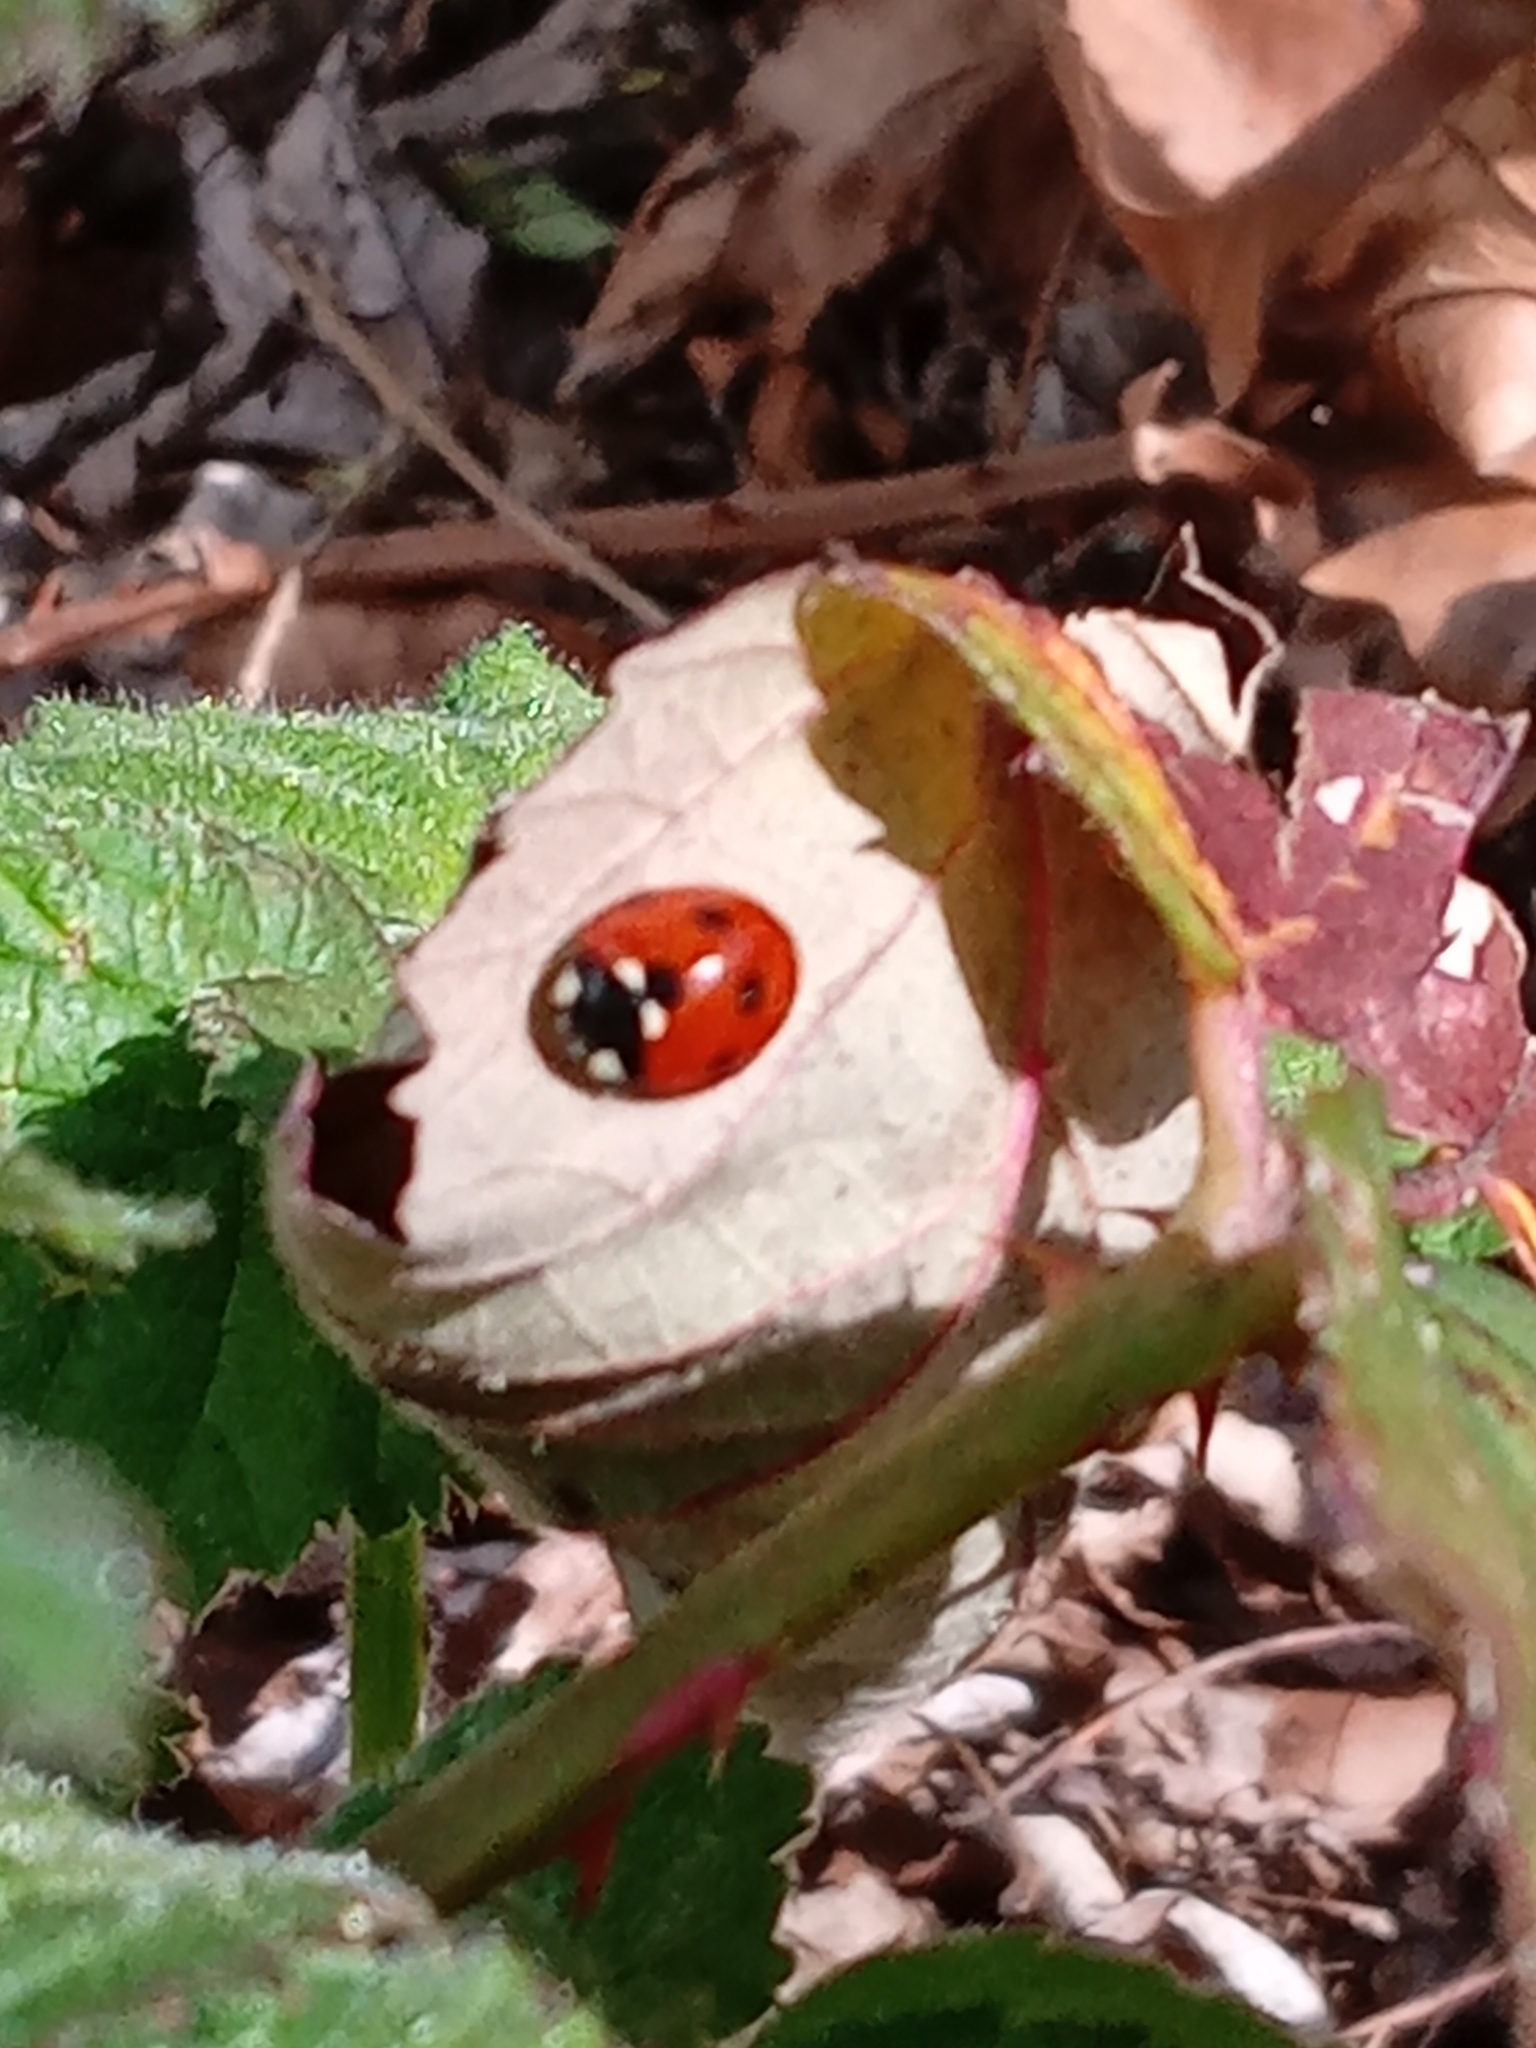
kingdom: Animalia
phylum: Arthropoda
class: Insecta
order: Coleoptera
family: Coccinellidae
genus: Coccinella
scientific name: Coccinella septempunctata
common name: Sevenspotted lady beetle
